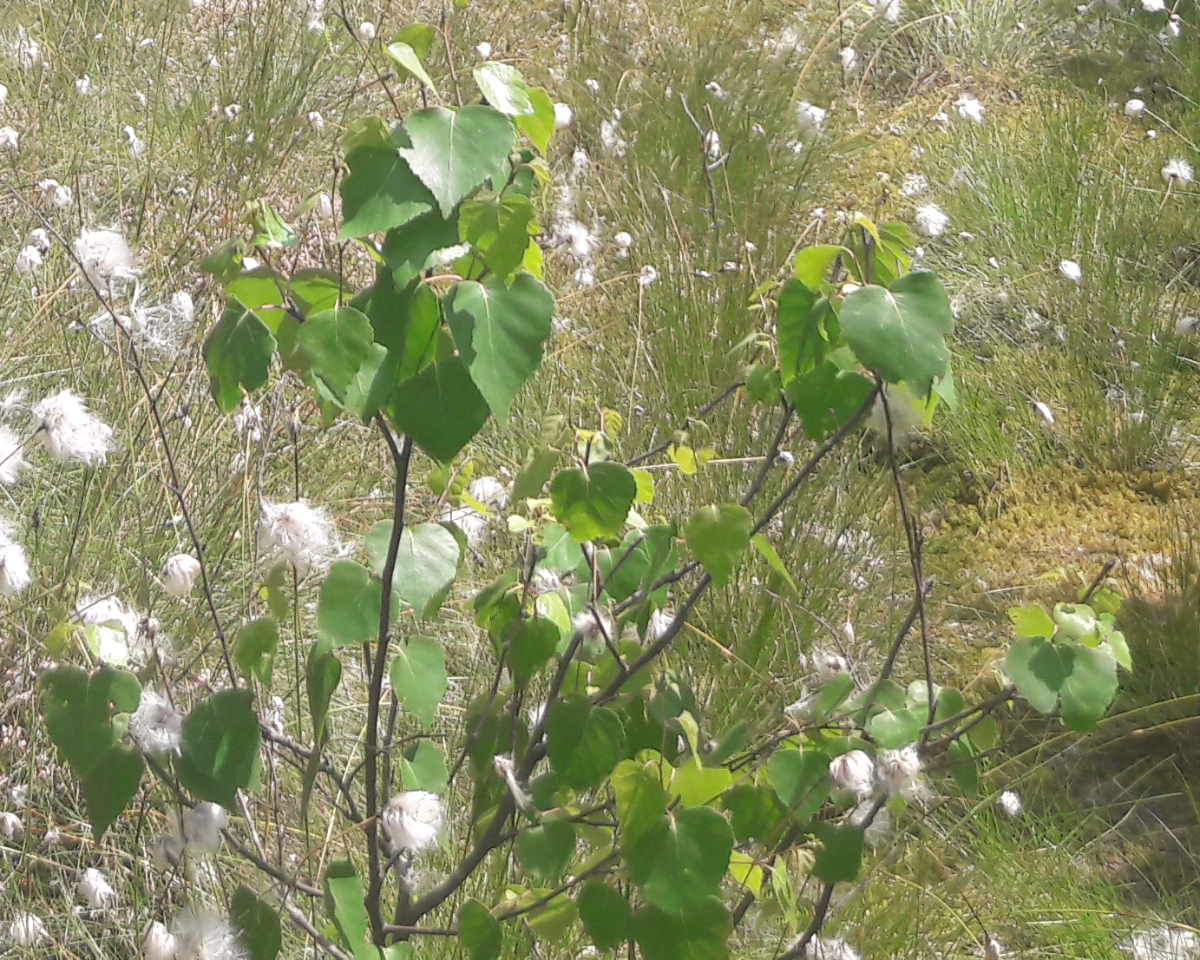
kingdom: Plantae
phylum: Tracheophyta
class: Magnoliopsida
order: Fagales
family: Betulaceae
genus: Betula
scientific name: Betula pubescens
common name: Downy birch
